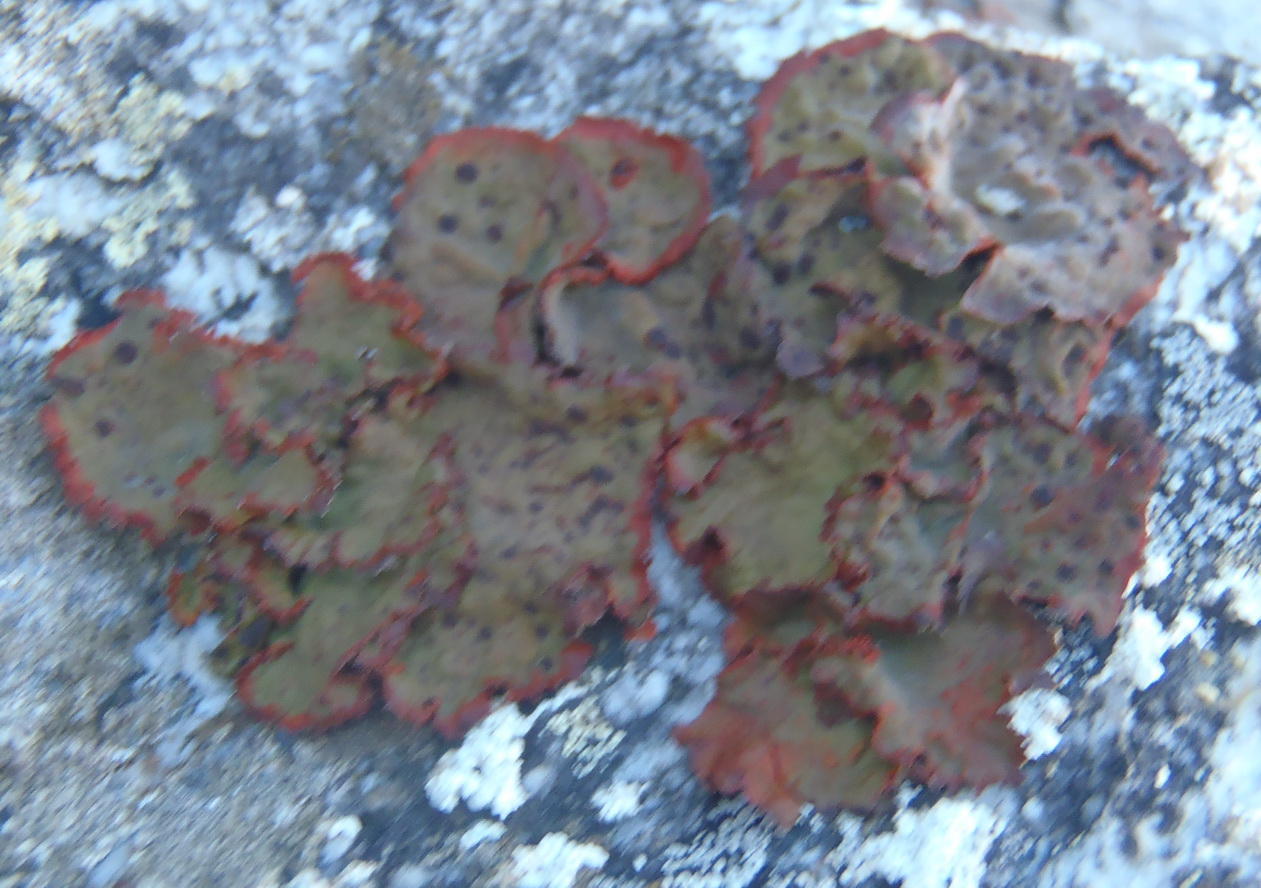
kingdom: Fungi
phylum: Ascomycota
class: Lecanoromycetes
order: Umbilicariales
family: Umbilicariaceae
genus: Lasallia
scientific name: Lasallia rubiginosa
